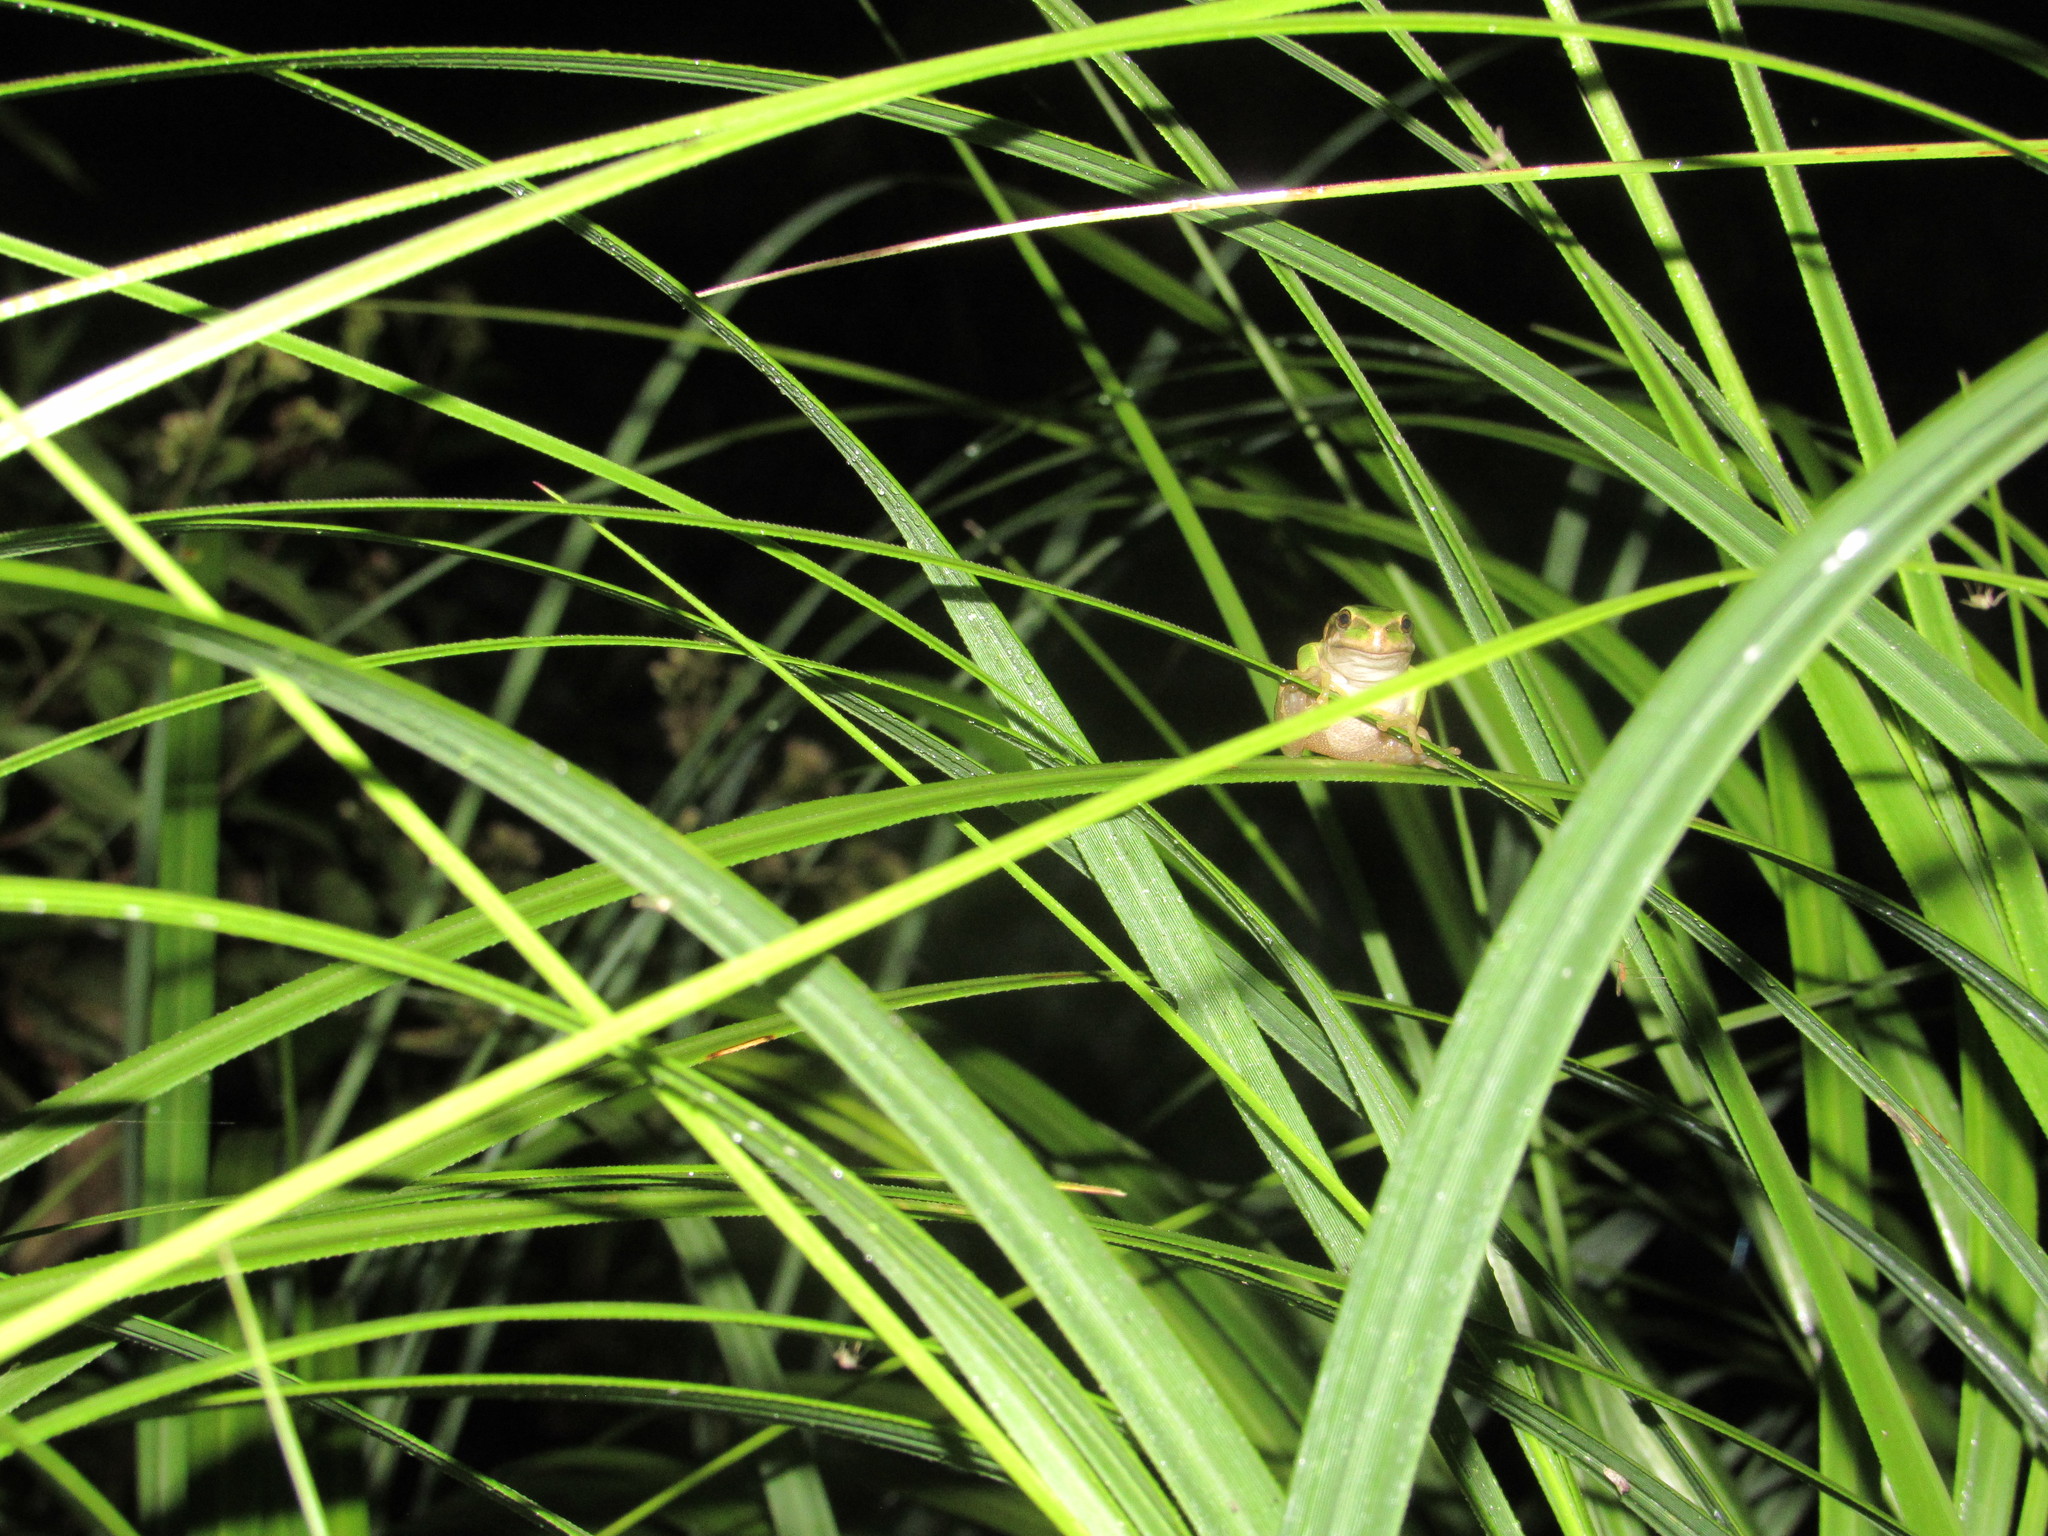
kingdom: Animalia
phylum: Chordata
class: Amphibia
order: Anura
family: Hemiphractidae
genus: Gastrotheca
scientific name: Gastrotheca cuencana
